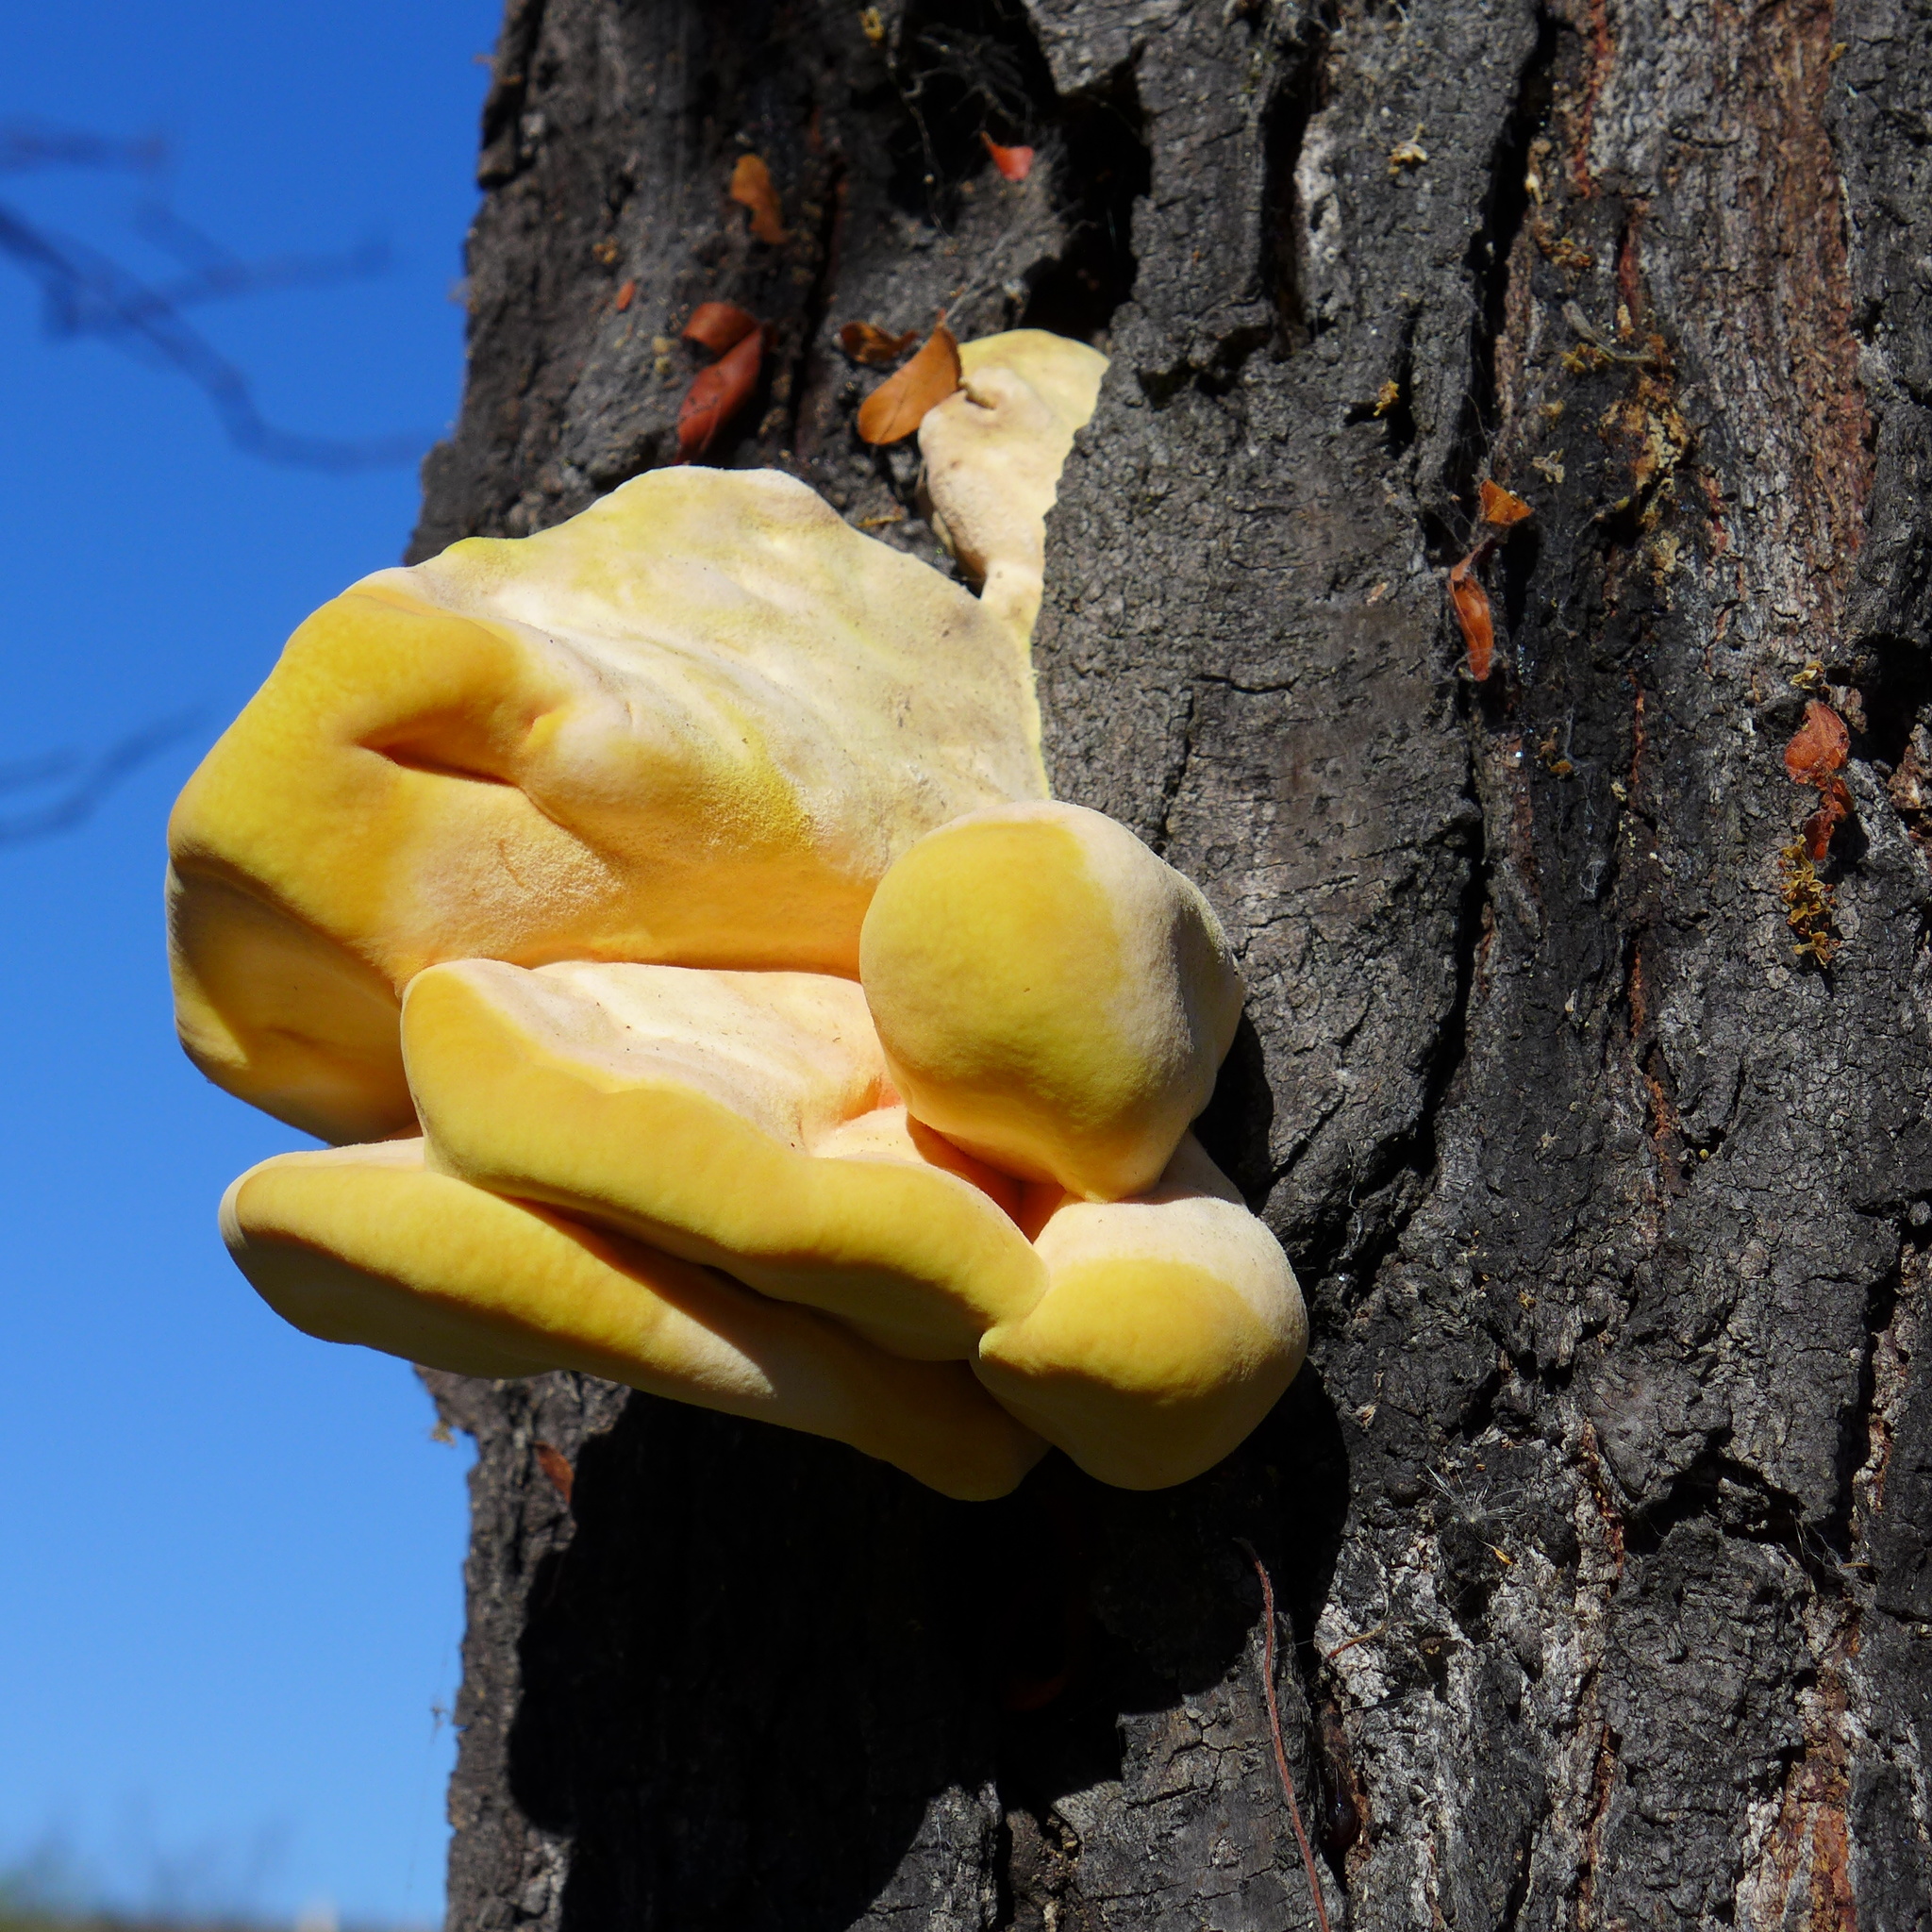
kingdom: Fungi
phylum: Basidiomycota
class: Agaricomycetes
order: Polyporales
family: Laetiporaceae
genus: Laetiporus
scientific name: Laetiporus gilbertsonii
